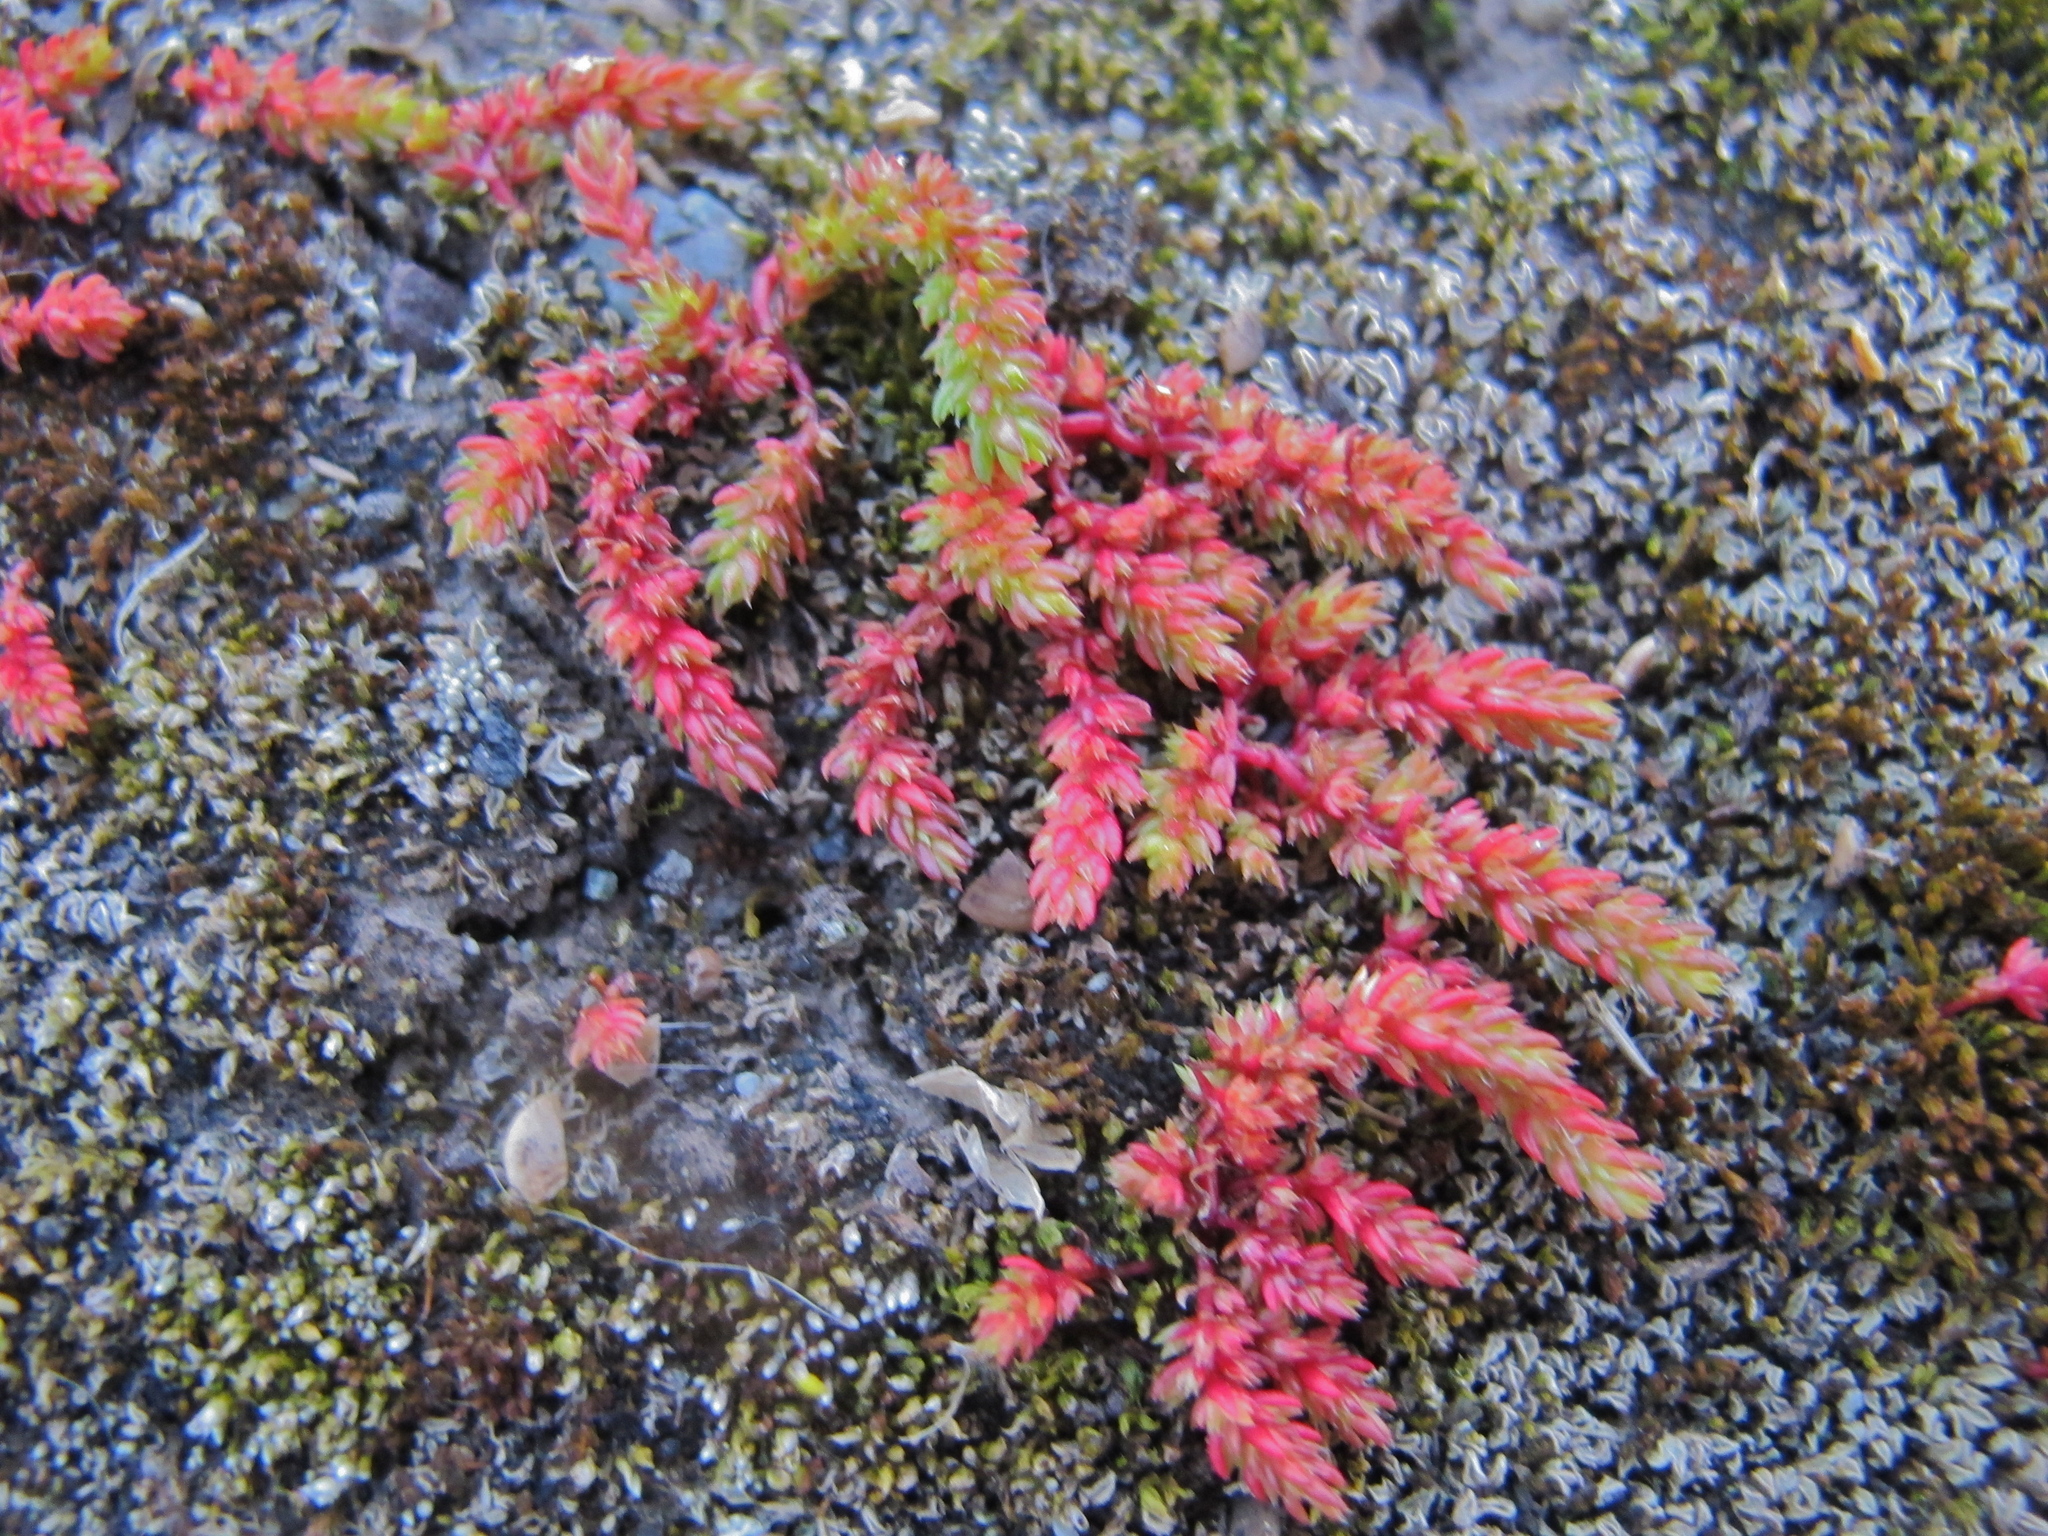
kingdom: Plantae
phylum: Tracheophyta
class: Magnoliopsida
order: Saxifragales
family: Crassulaceae
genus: Crassula
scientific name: Crassula tillaea
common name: Mossy stonecrop
